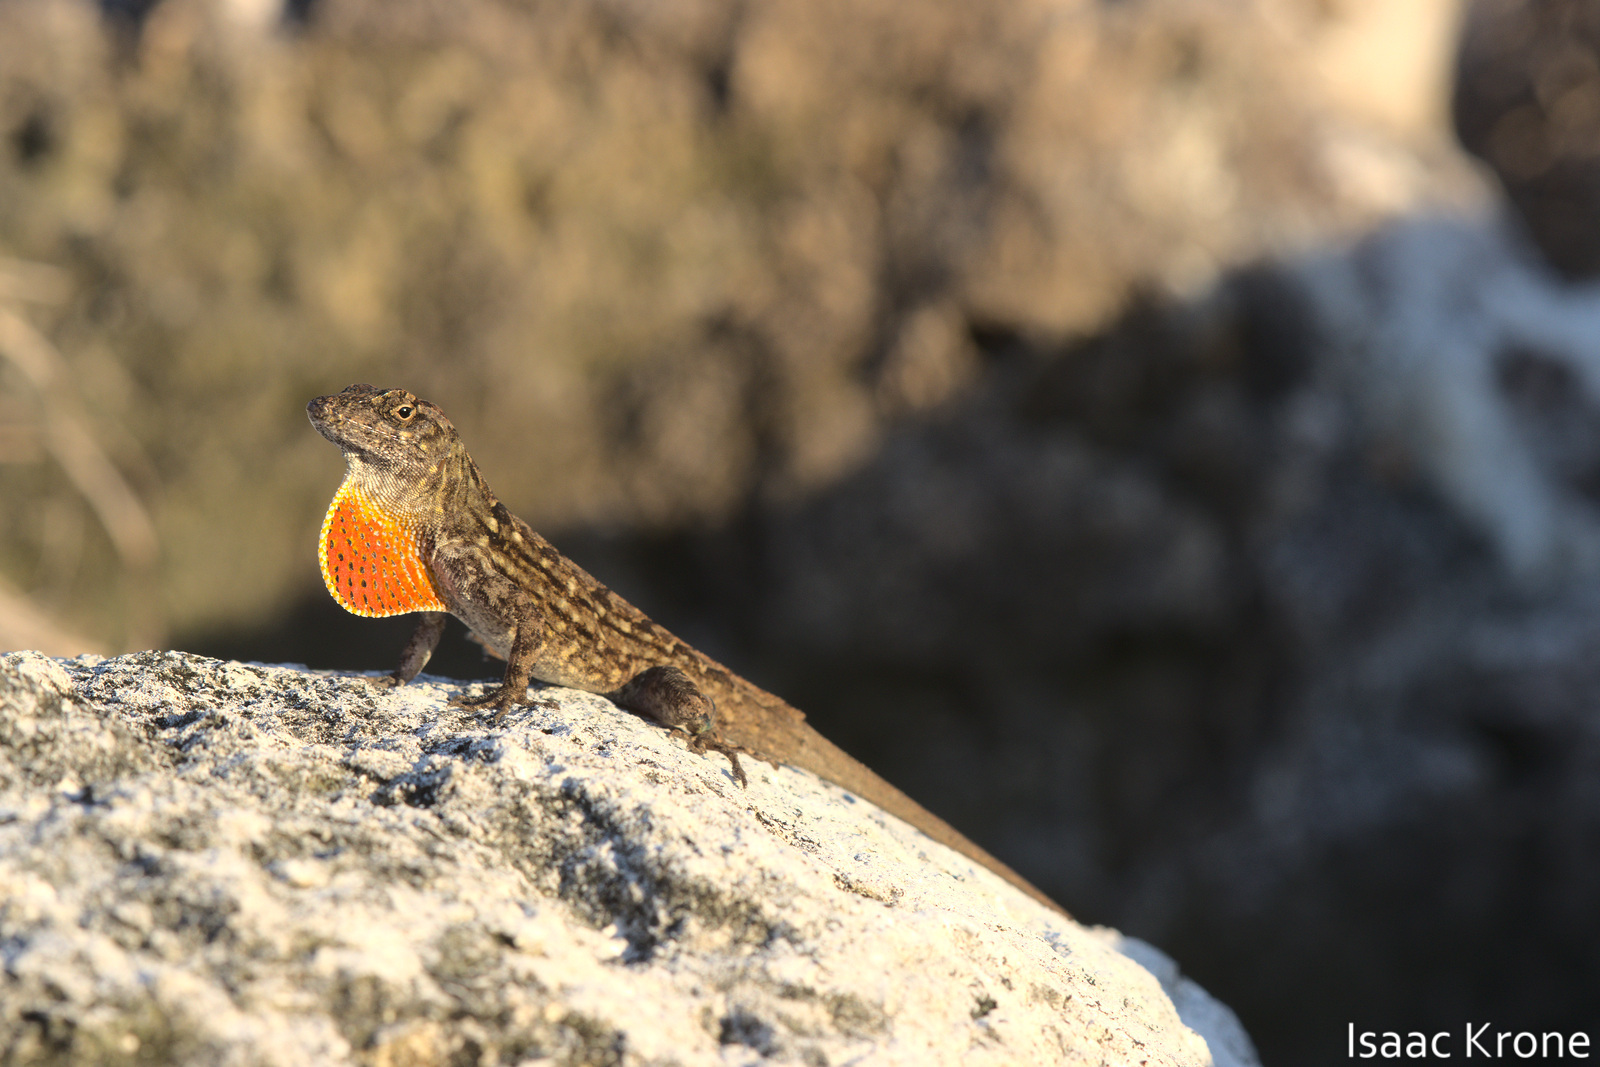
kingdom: Animalia
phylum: Chordata
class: Squamata
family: Dactyloidae
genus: Anolis
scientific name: Anolis sagrei
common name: Brown anole
